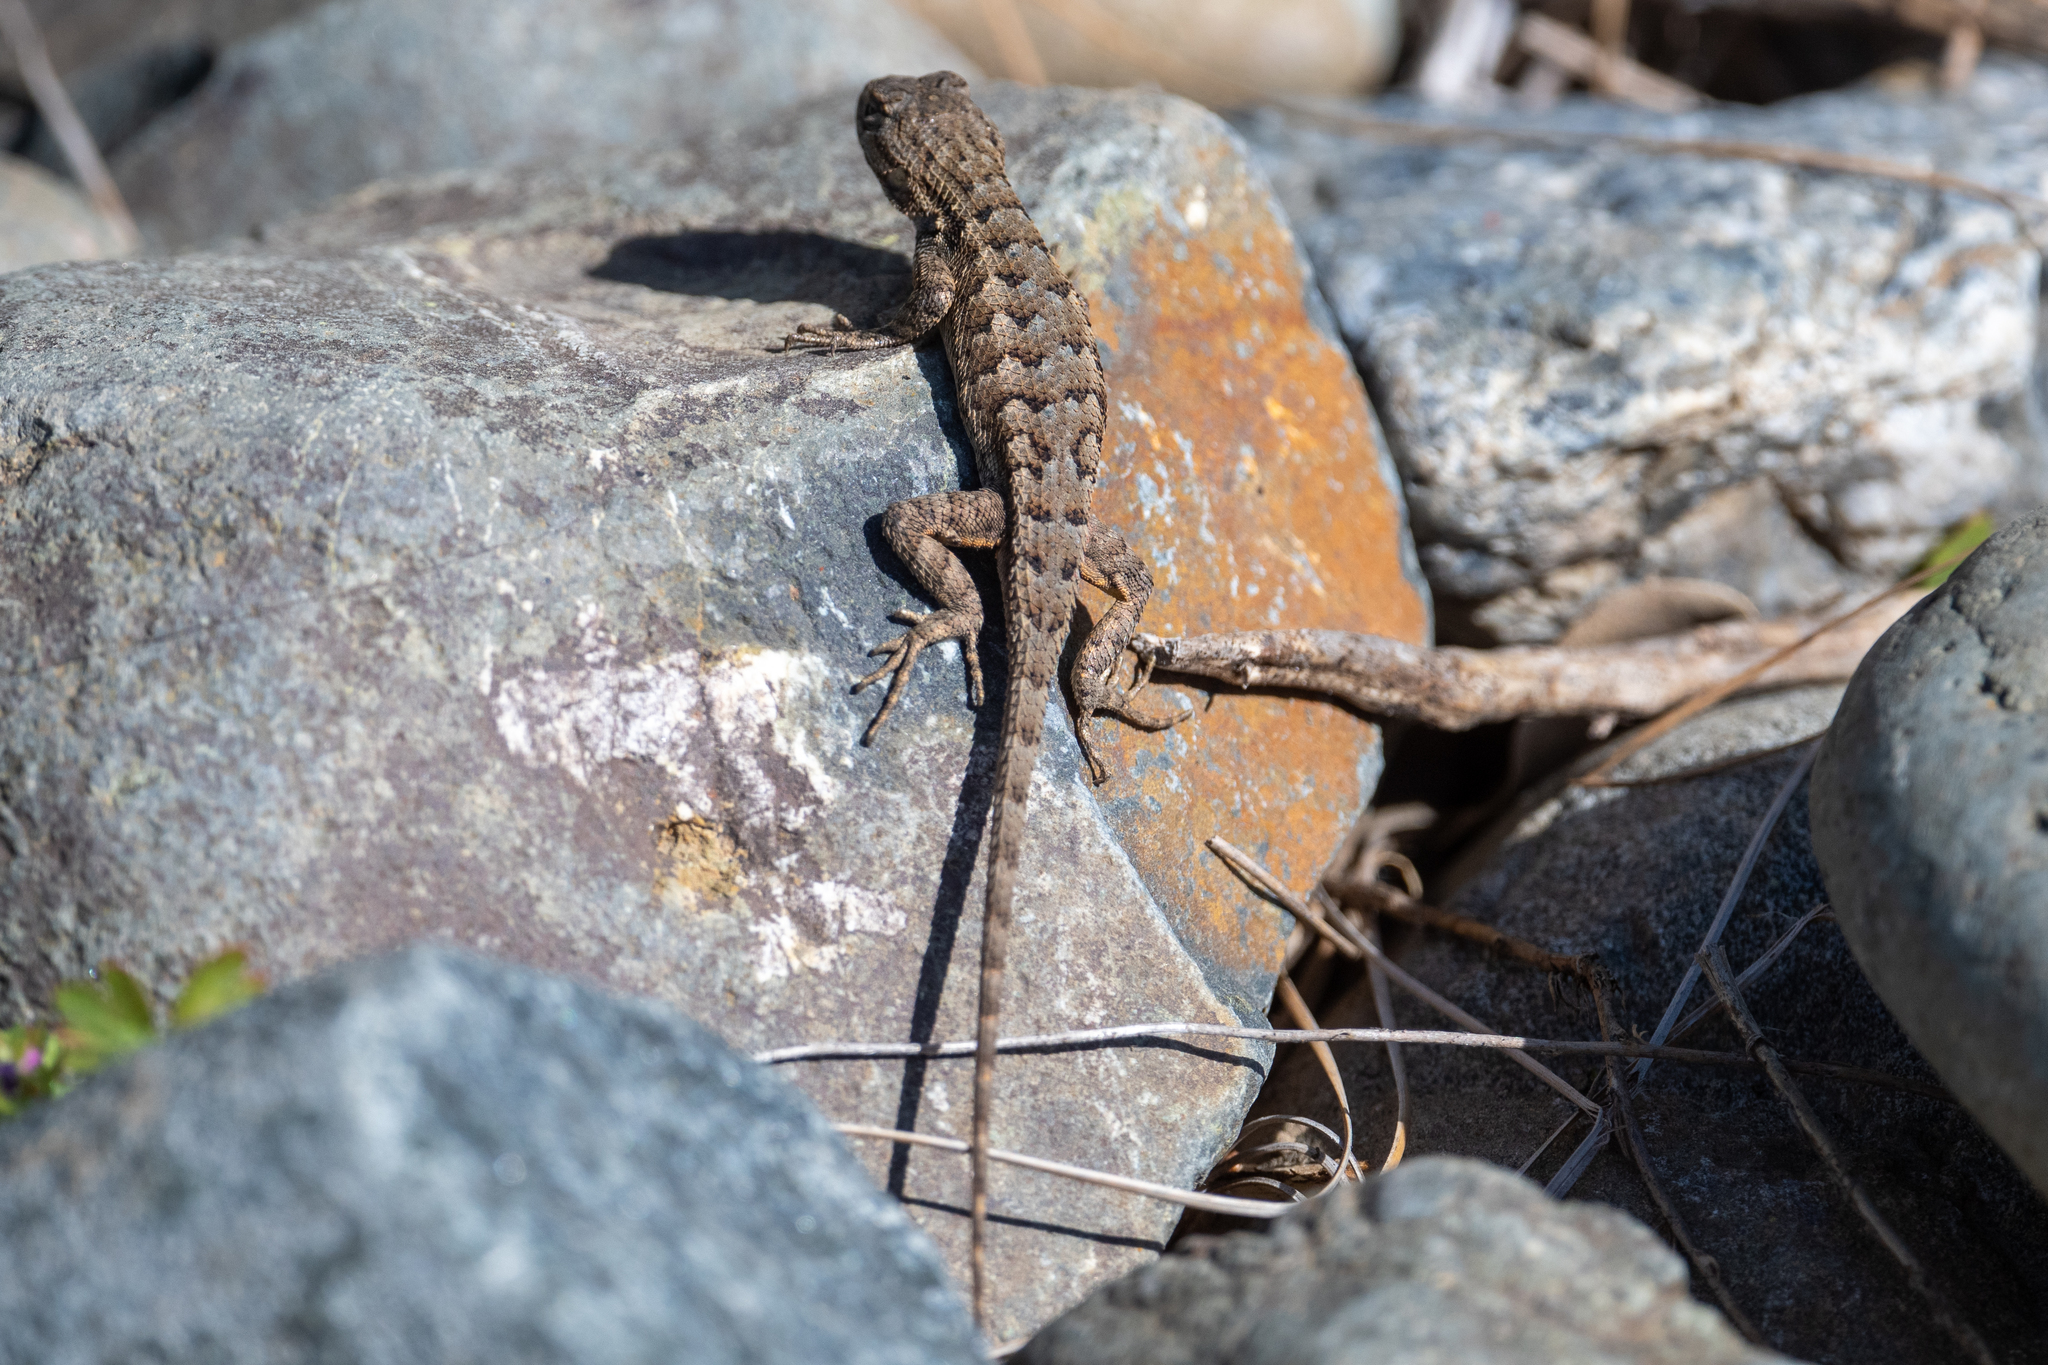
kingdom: Animalia
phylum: Chordata
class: Squamata
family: Phrynosomatidae
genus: Sceloporus
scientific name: Sceloporus occidentalis
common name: Western fence lizard
